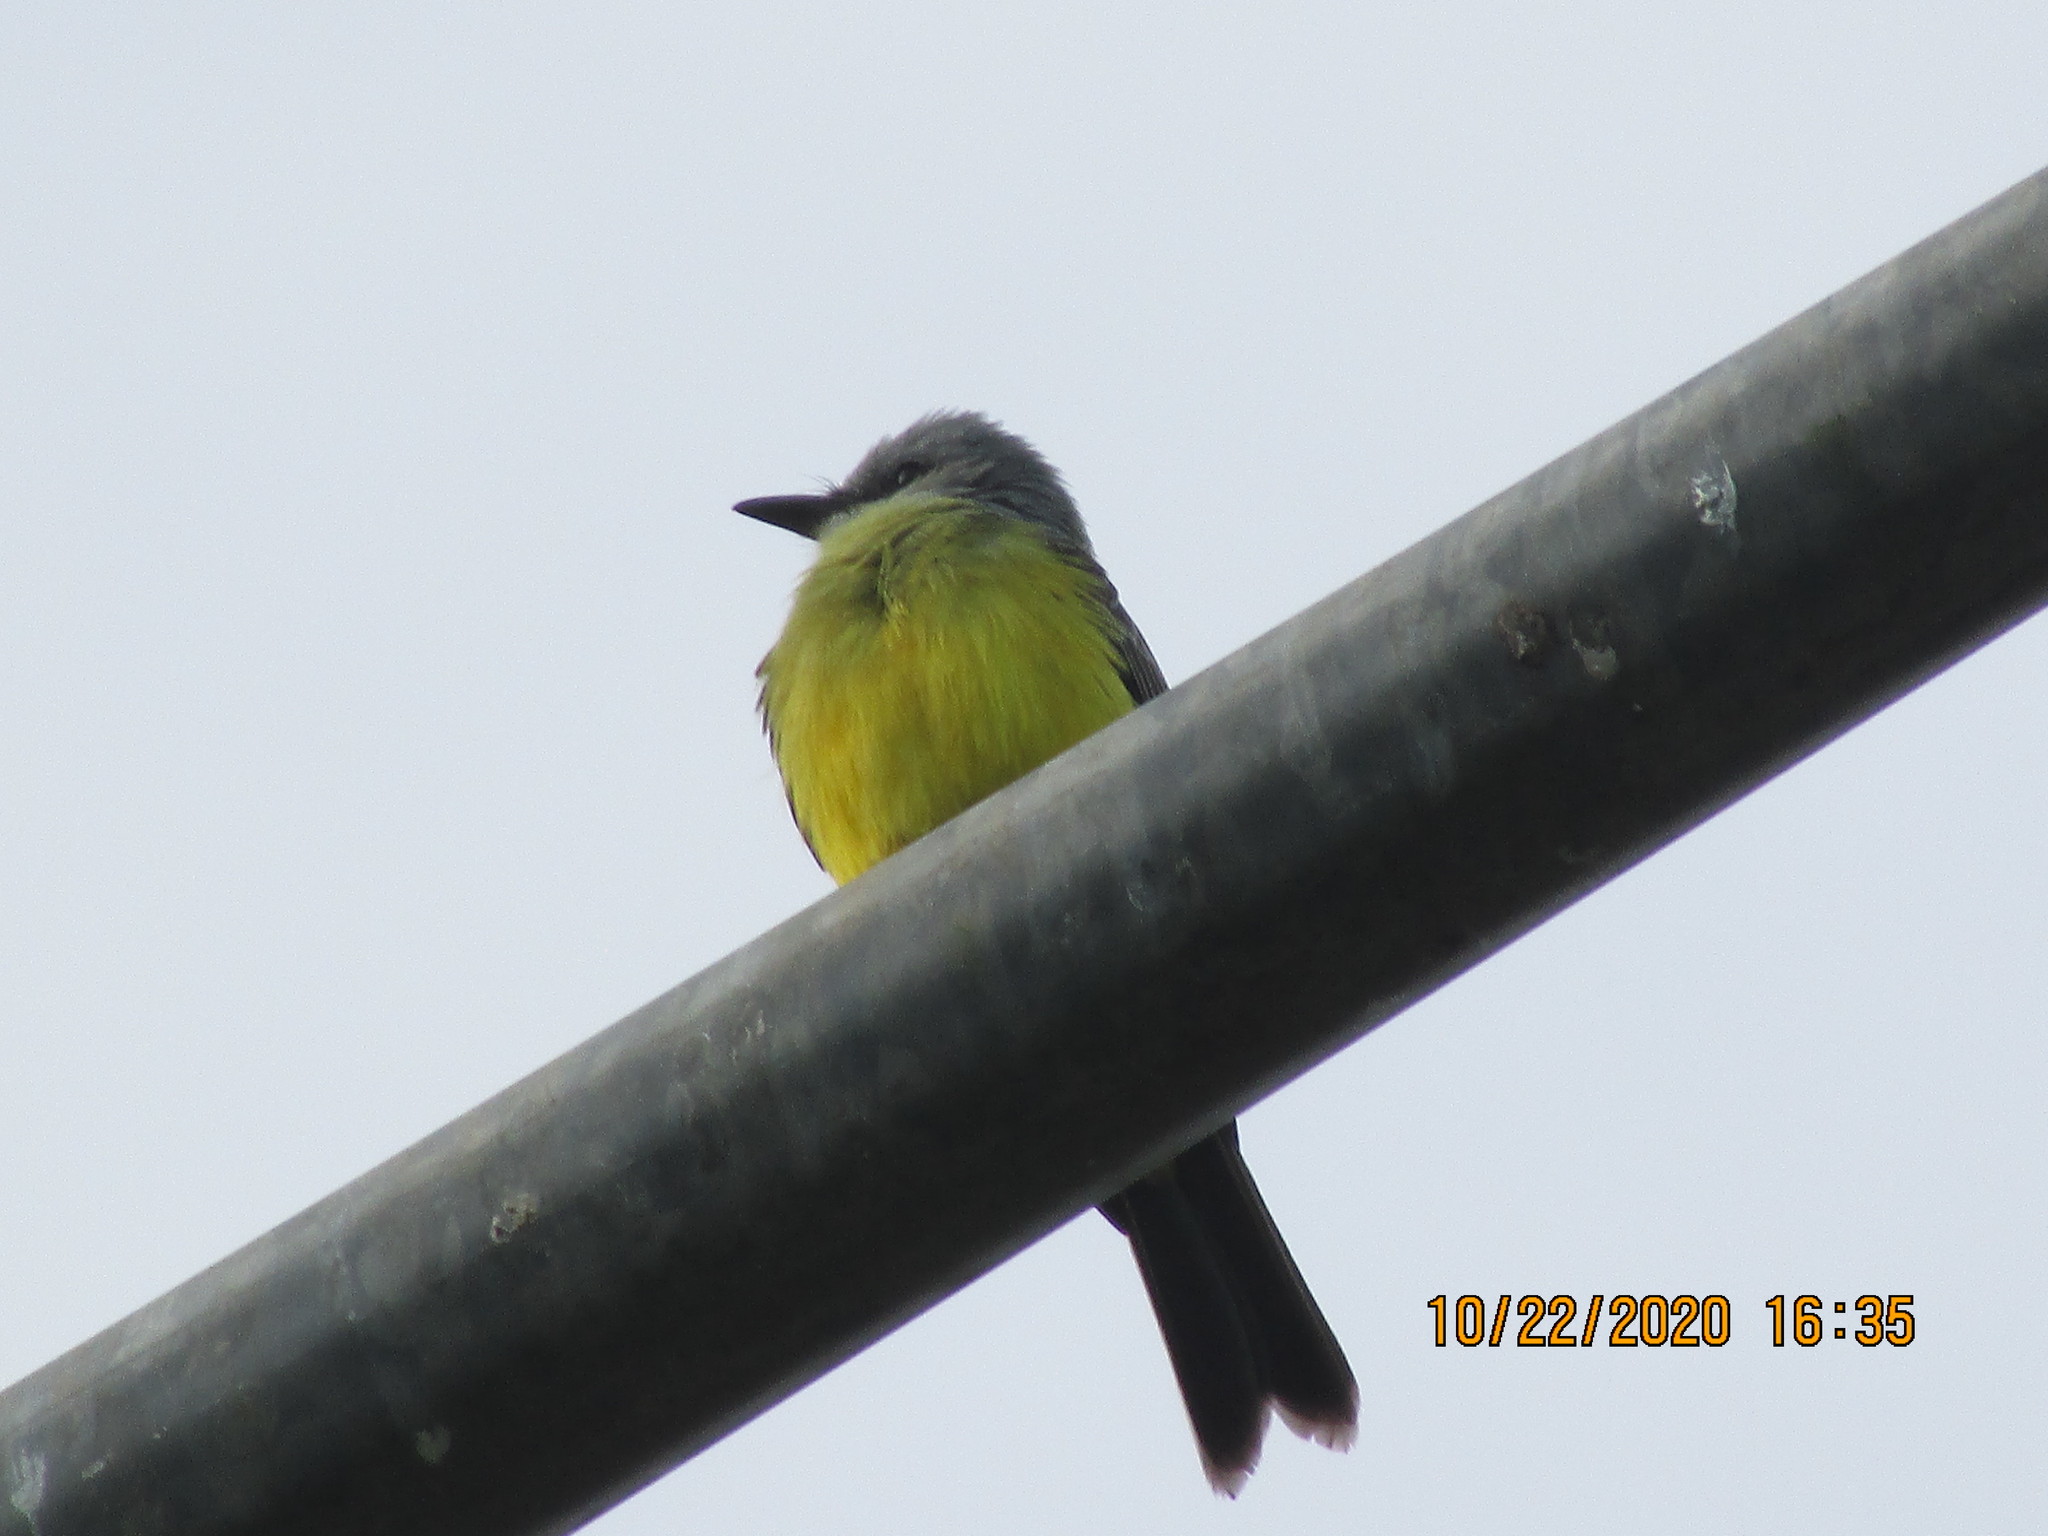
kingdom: Animalia
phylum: Chordata
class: Aves
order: Passeriformes
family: Tyrannidae
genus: Tyrannus
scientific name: Tyrannus melancholicus
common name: Tropical kingbird
